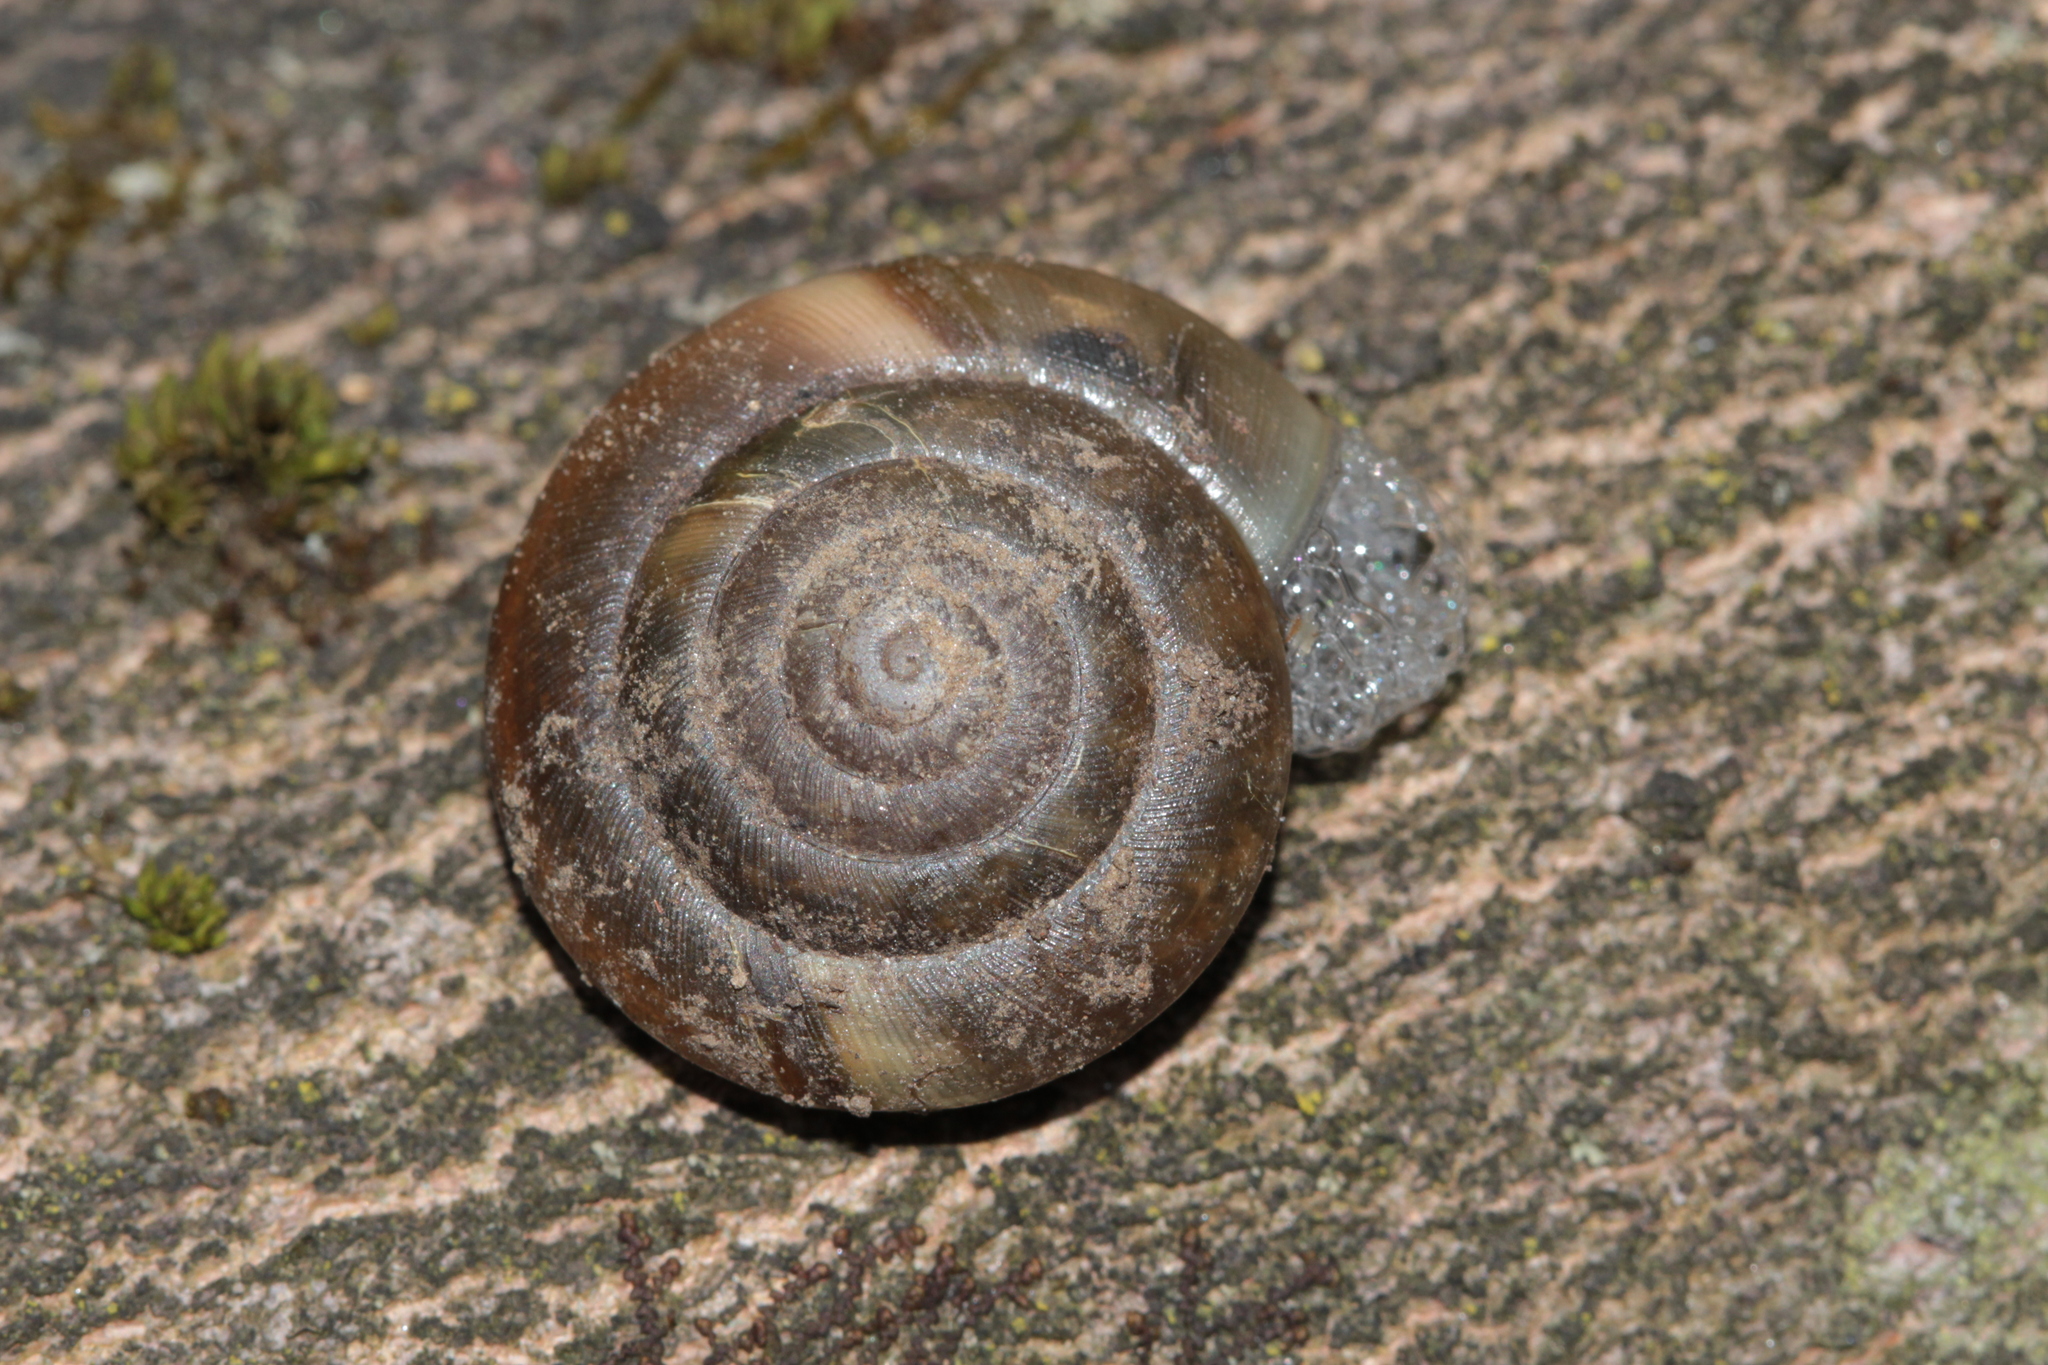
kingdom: Animalia
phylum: Mollusca
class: Gastropoda
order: Stylommatophora
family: Zonitidae
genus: Aegopis
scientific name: Aegopis verticillus
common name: Giant glass snail
